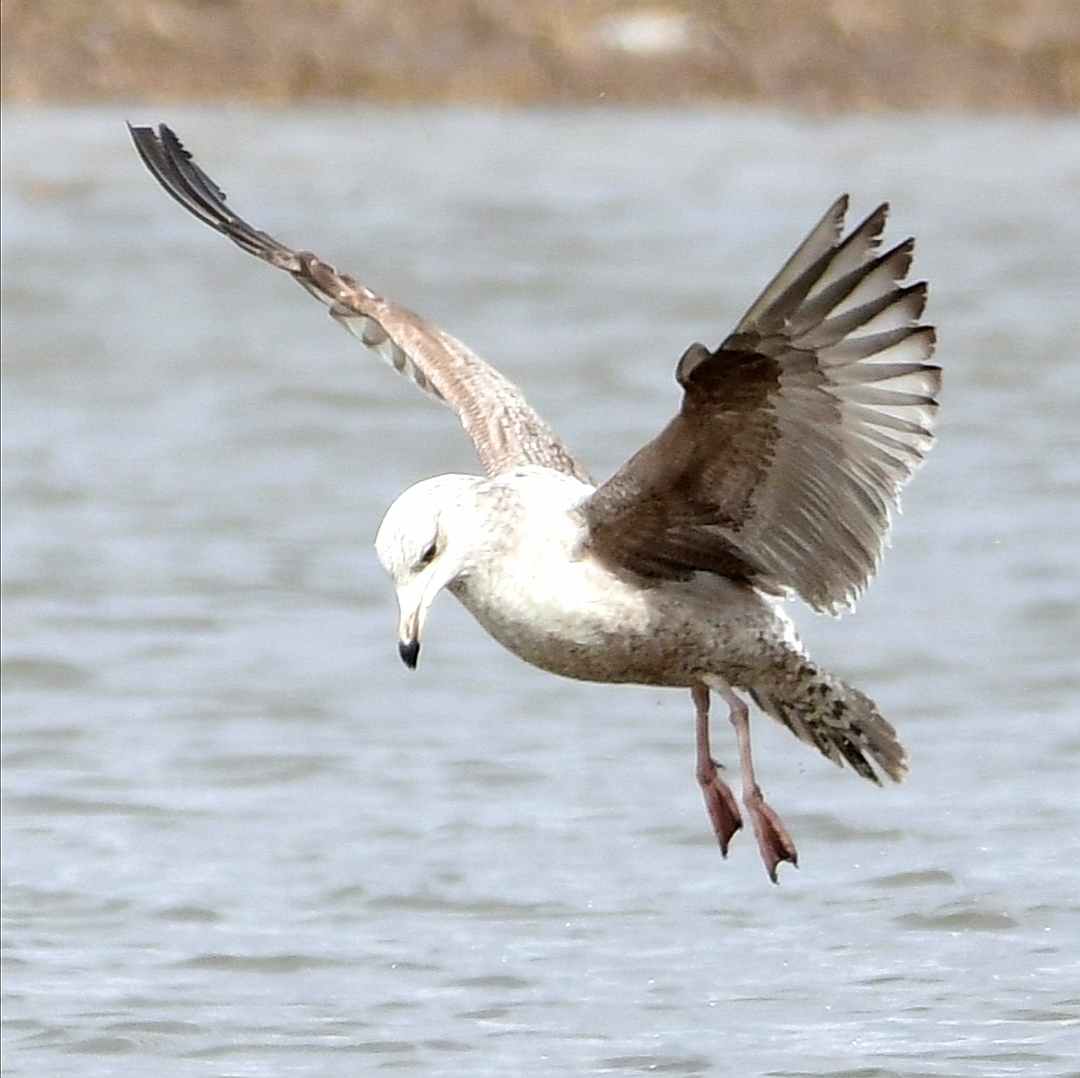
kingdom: Animalia
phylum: Chordata
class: Aves
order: Charadriiformes
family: Laridae
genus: Larus
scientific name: Larus argentatus
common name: Herring gull
